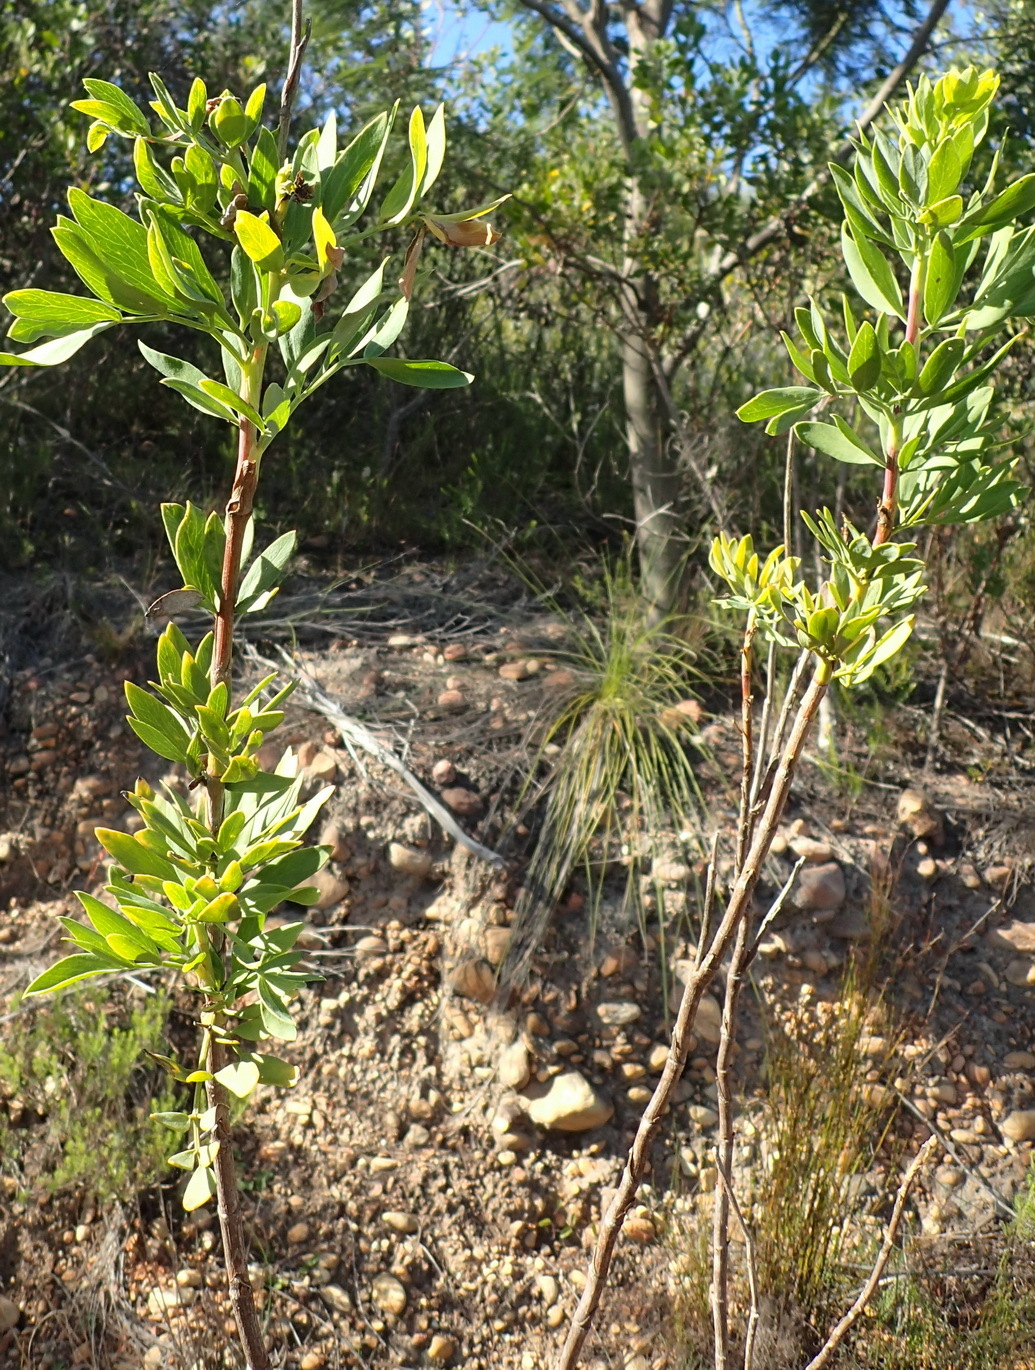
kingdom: Plantae
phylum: Tracheophyta
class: Magnoliopsida
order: Apiales
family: Apiaceae
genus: Notobubon
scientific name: Notobubon laevigatum
